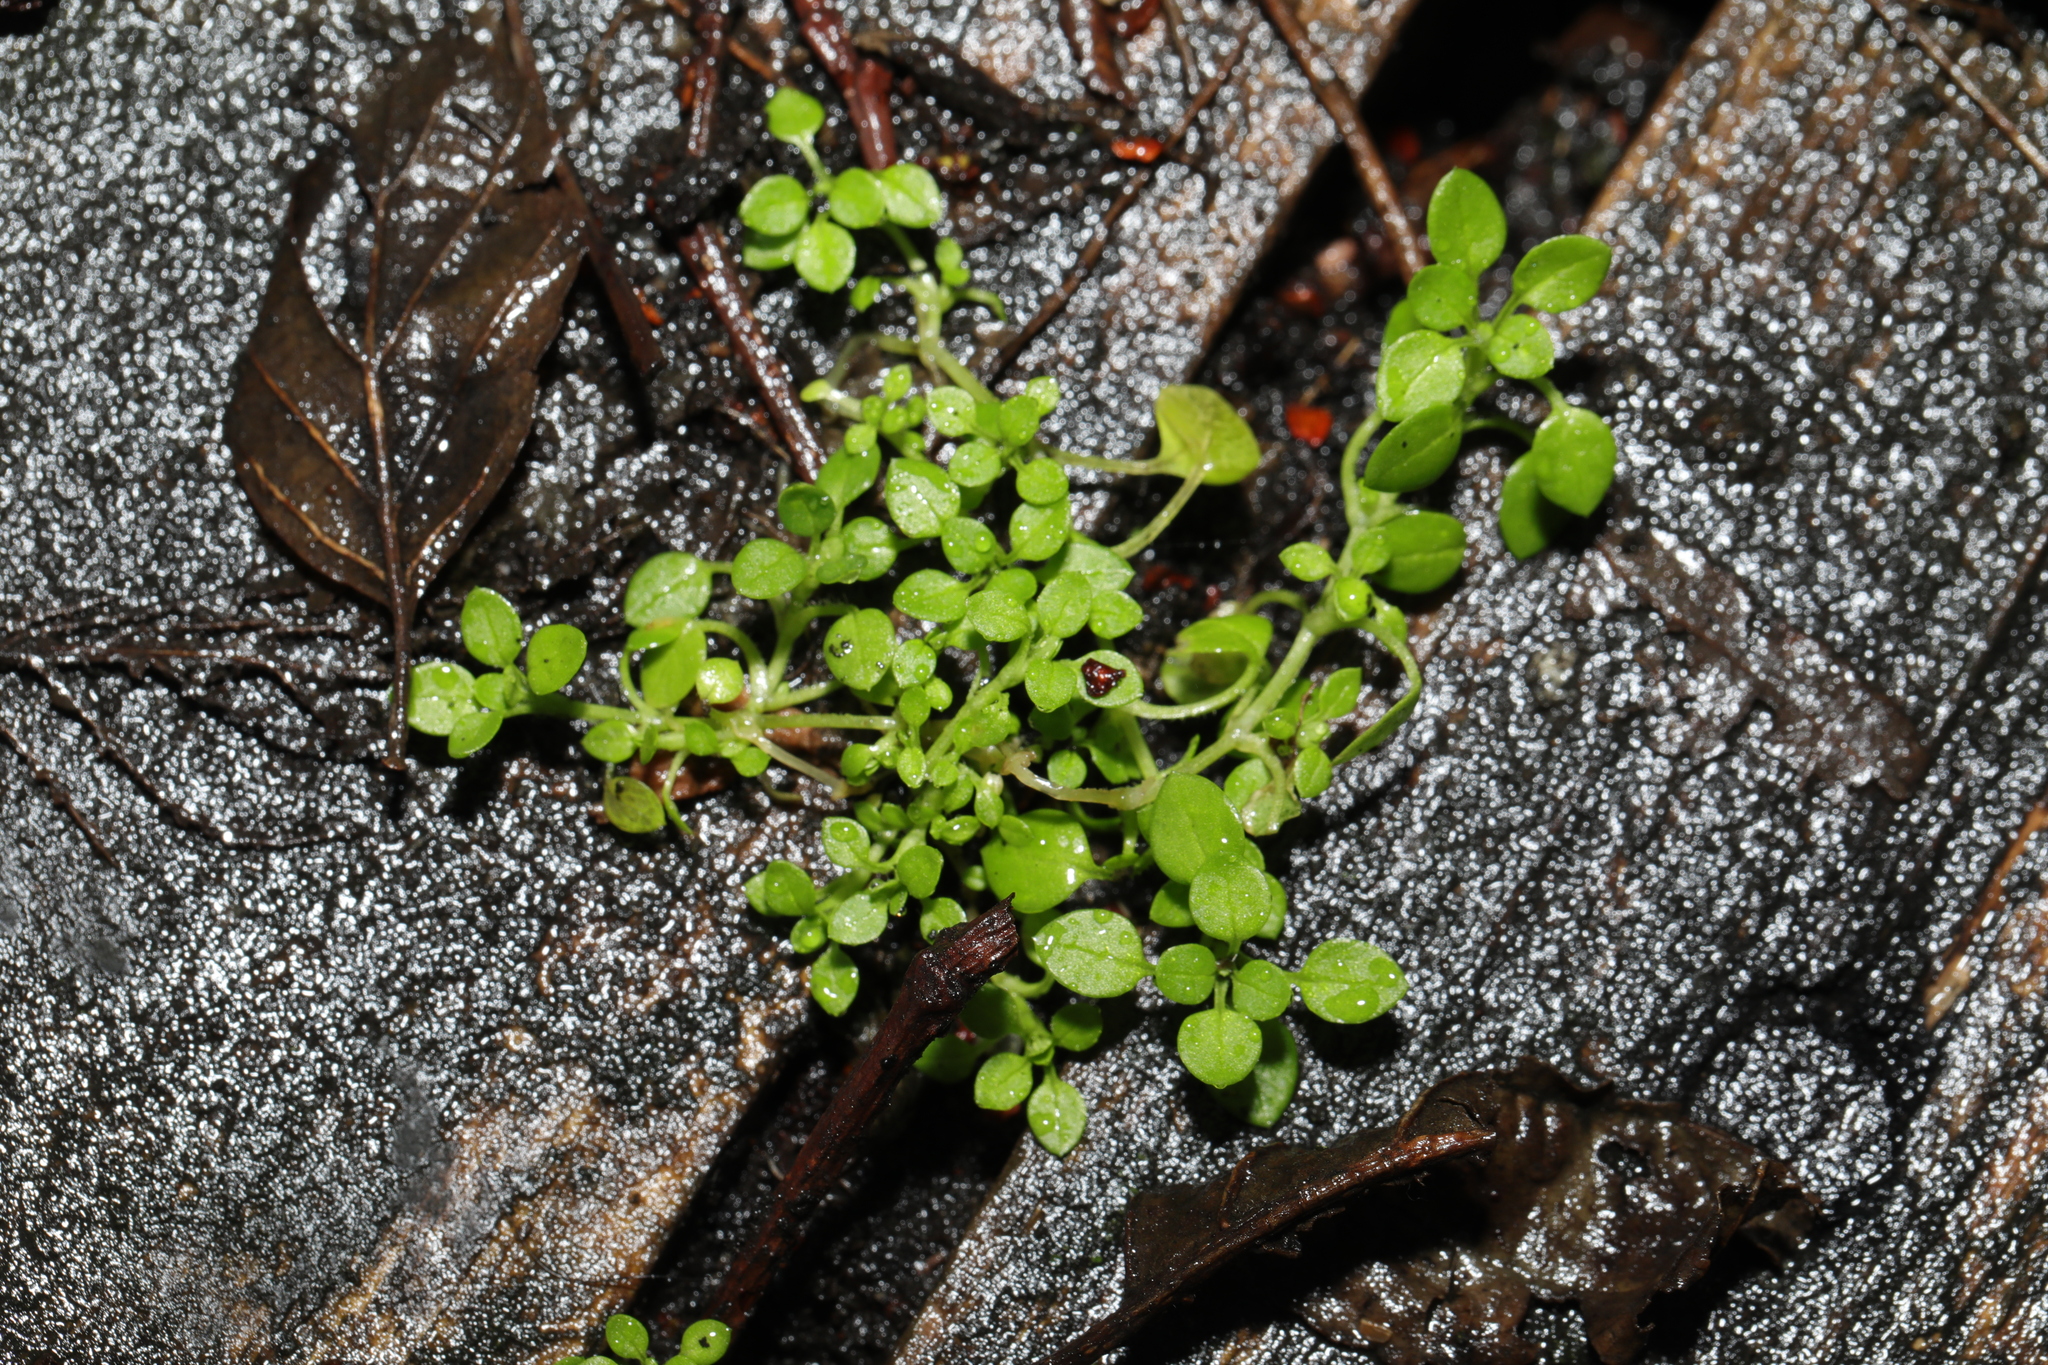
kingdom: Plantae
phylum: Tracheophyta
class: Magnoliopsida
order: Caryophyllales
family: Caryophyllaceae
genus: Stellaria
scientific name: Stellaria media
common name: Common chickweed
